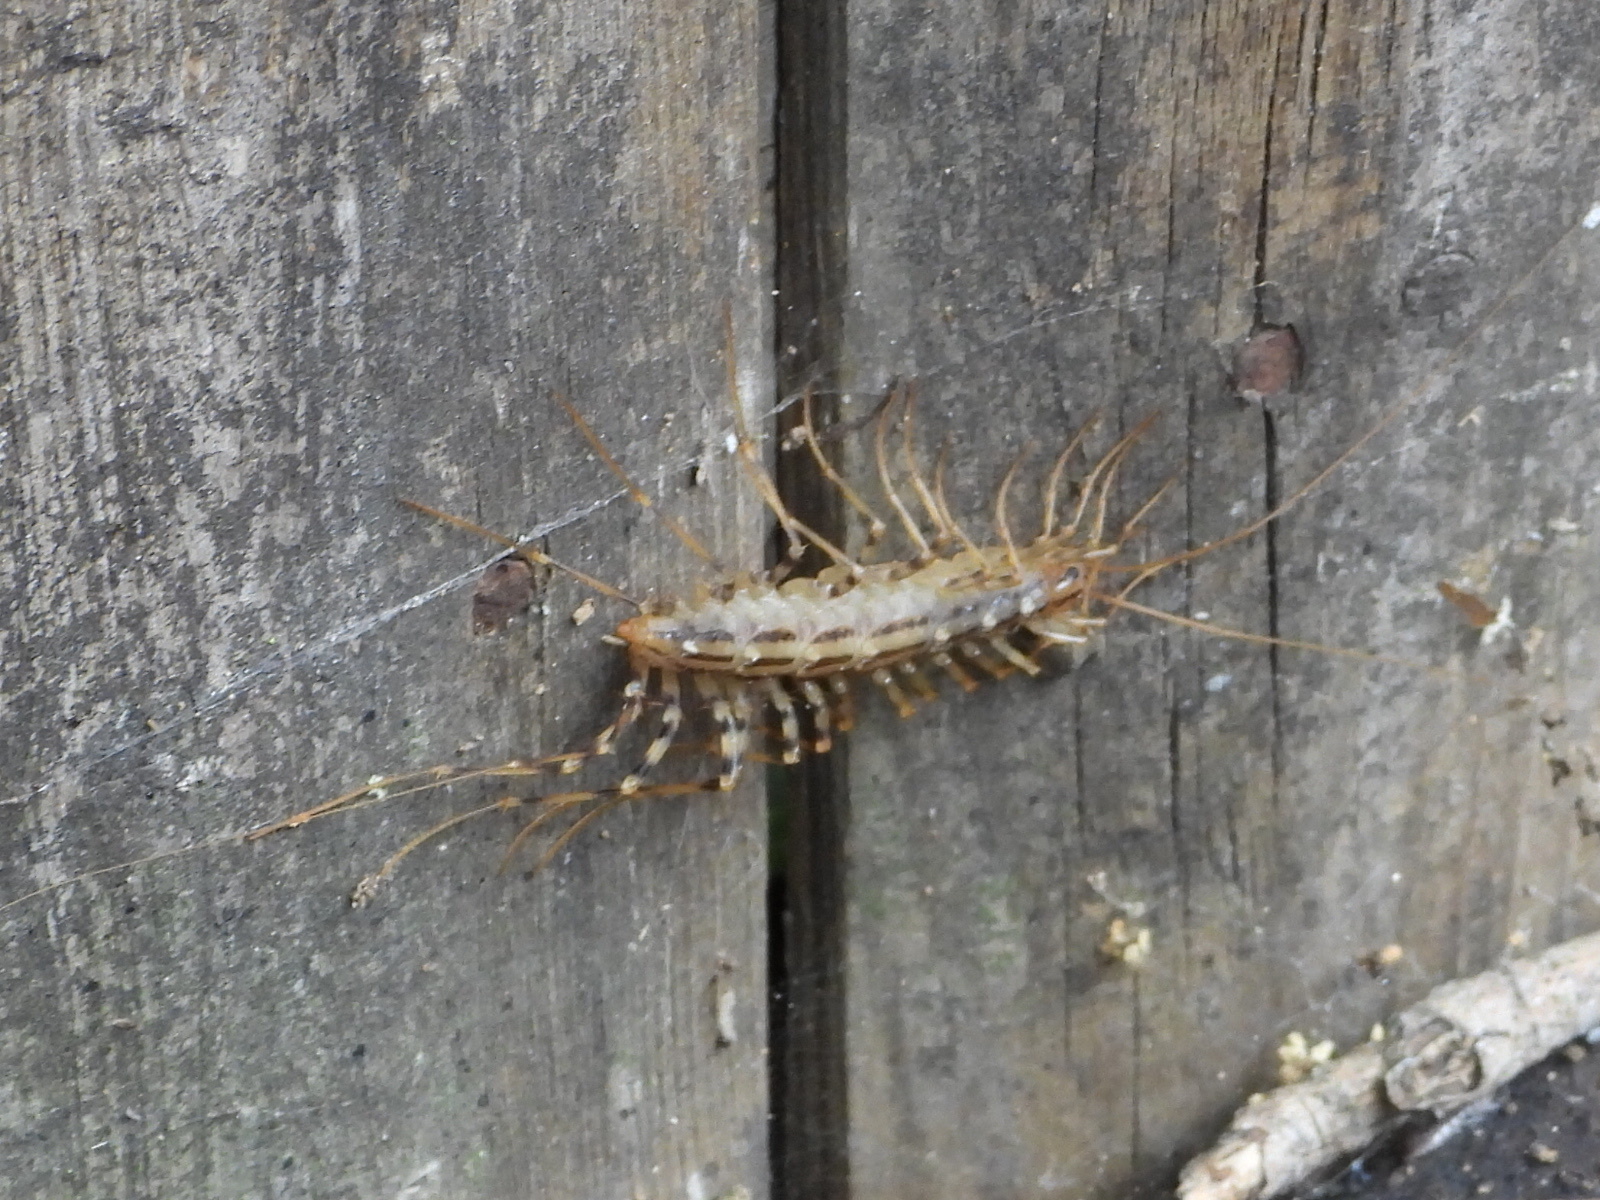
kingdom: Animalia
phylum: Arthropoda
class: Chilopoda
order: Scutigeromorpha
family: Scutigeridae
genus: Scutigera
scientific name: Scutigera coleoptrata
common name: House centipede
